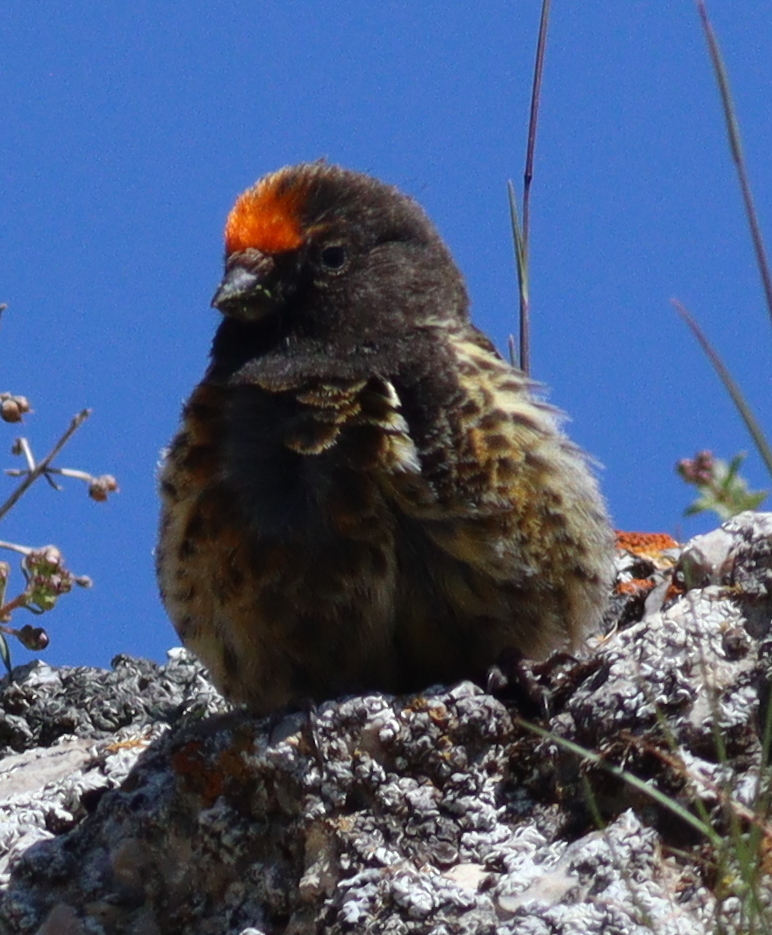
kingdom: Animalia
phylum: Chordata
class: Aves
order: Passeriformes
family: Fringillidae
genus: Serinus
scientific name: Serinus pusillus
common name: Red-fronted serin
